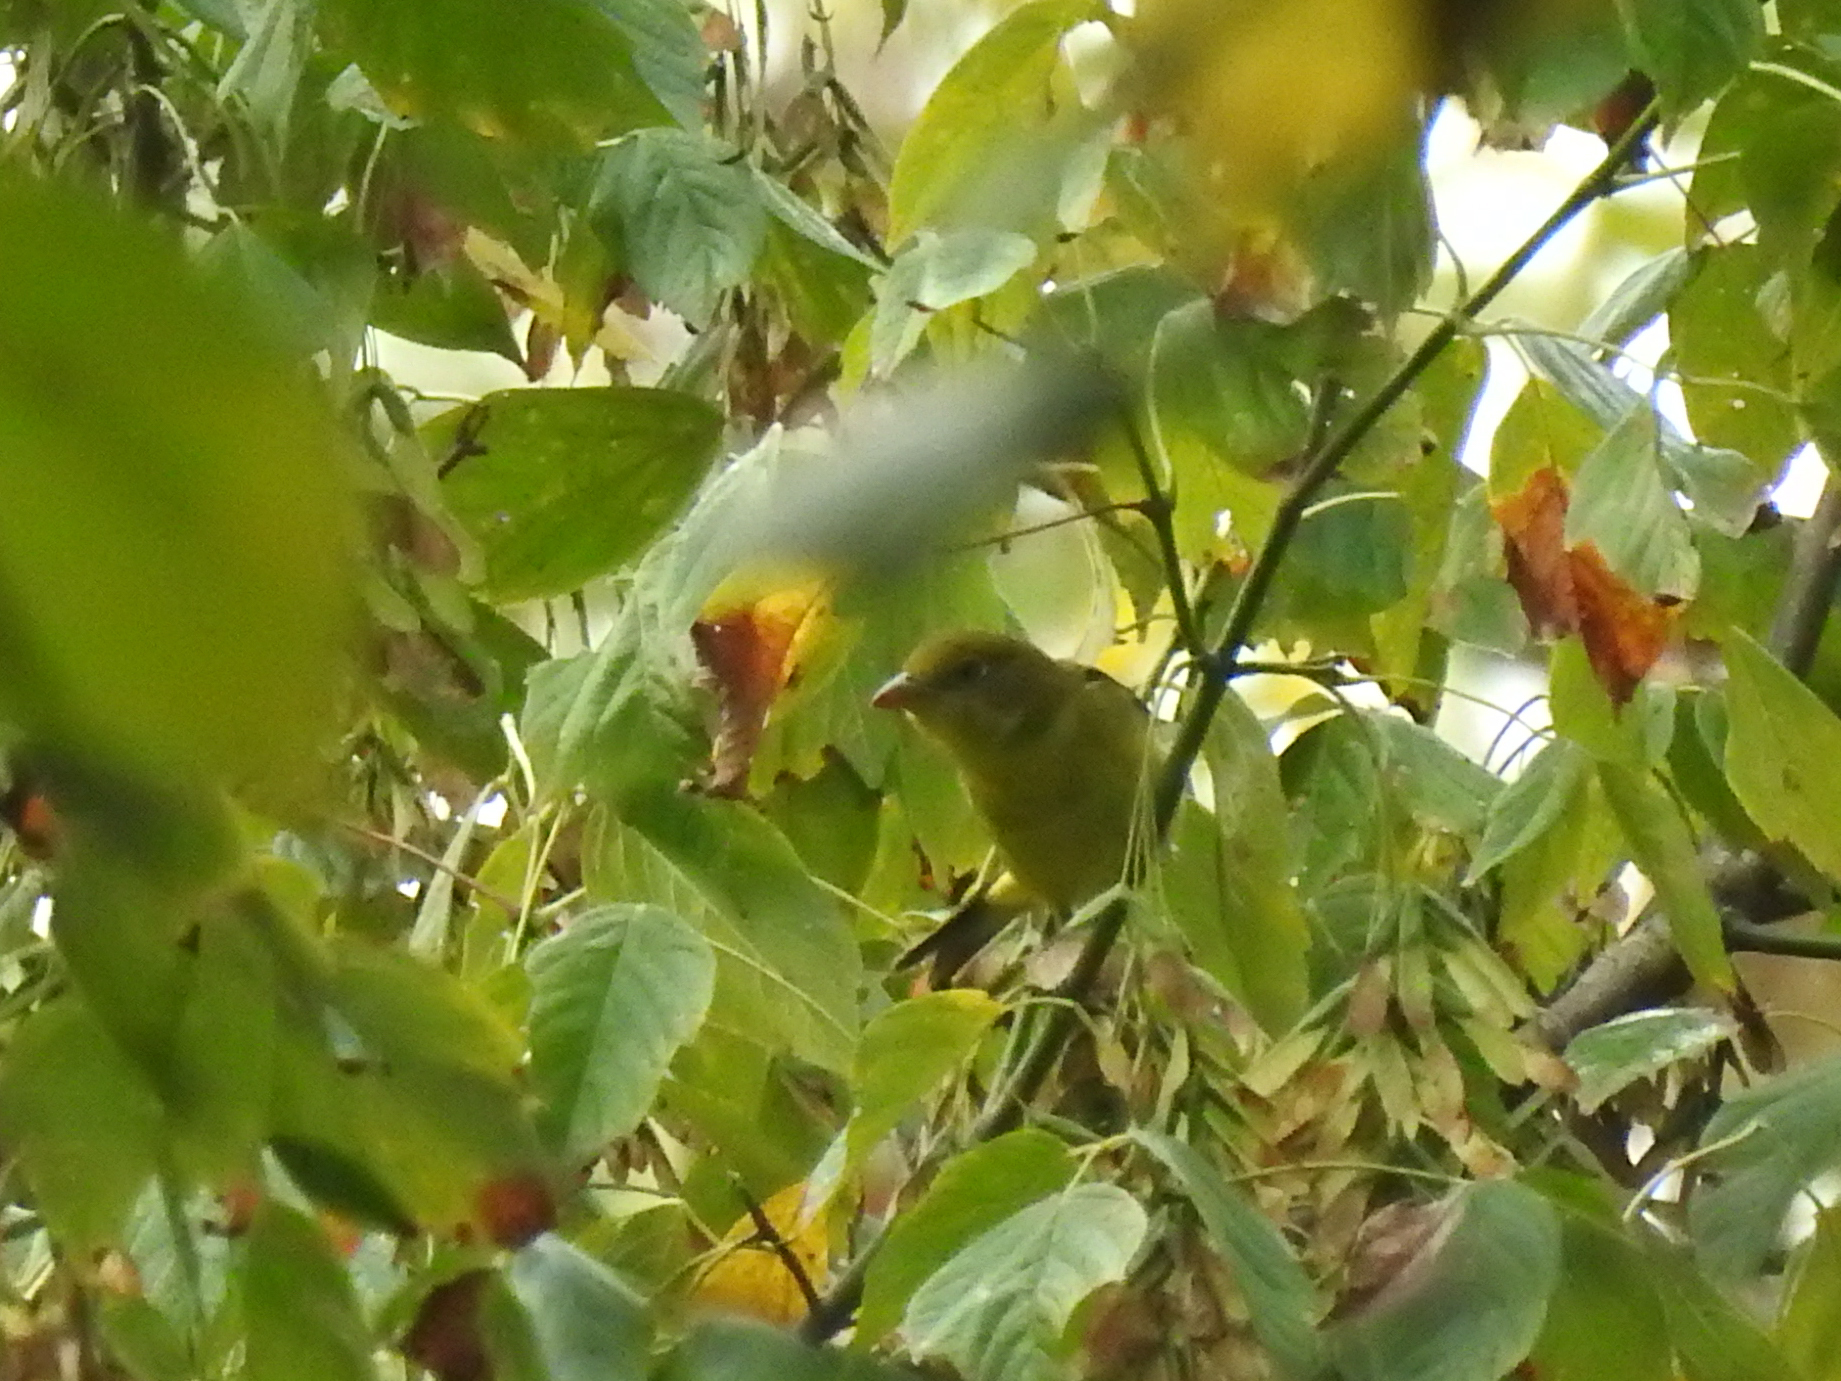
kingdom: Animalia
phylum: Chordata
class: Aves
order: Passeriformes
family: Cardinalidae
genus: Piranga
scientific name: Piranga olivacea
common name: Scarlet tanager
